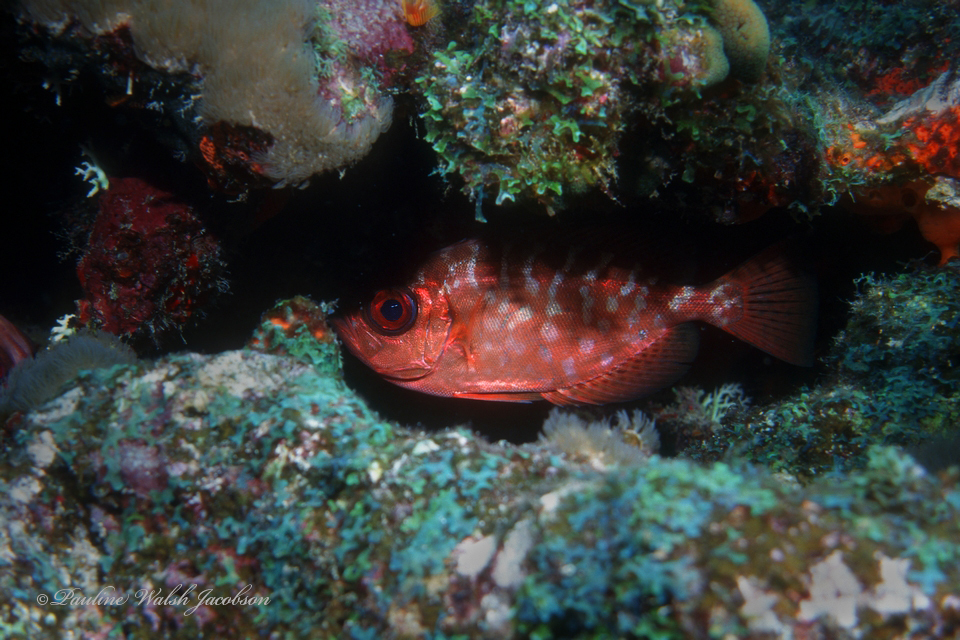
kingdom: Animalia
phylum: Chordata
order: Perciformes
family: Priacanthidae
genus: Heteropriacanthus
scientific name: Heteropriacanthus cruentatus
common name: Glasseye
